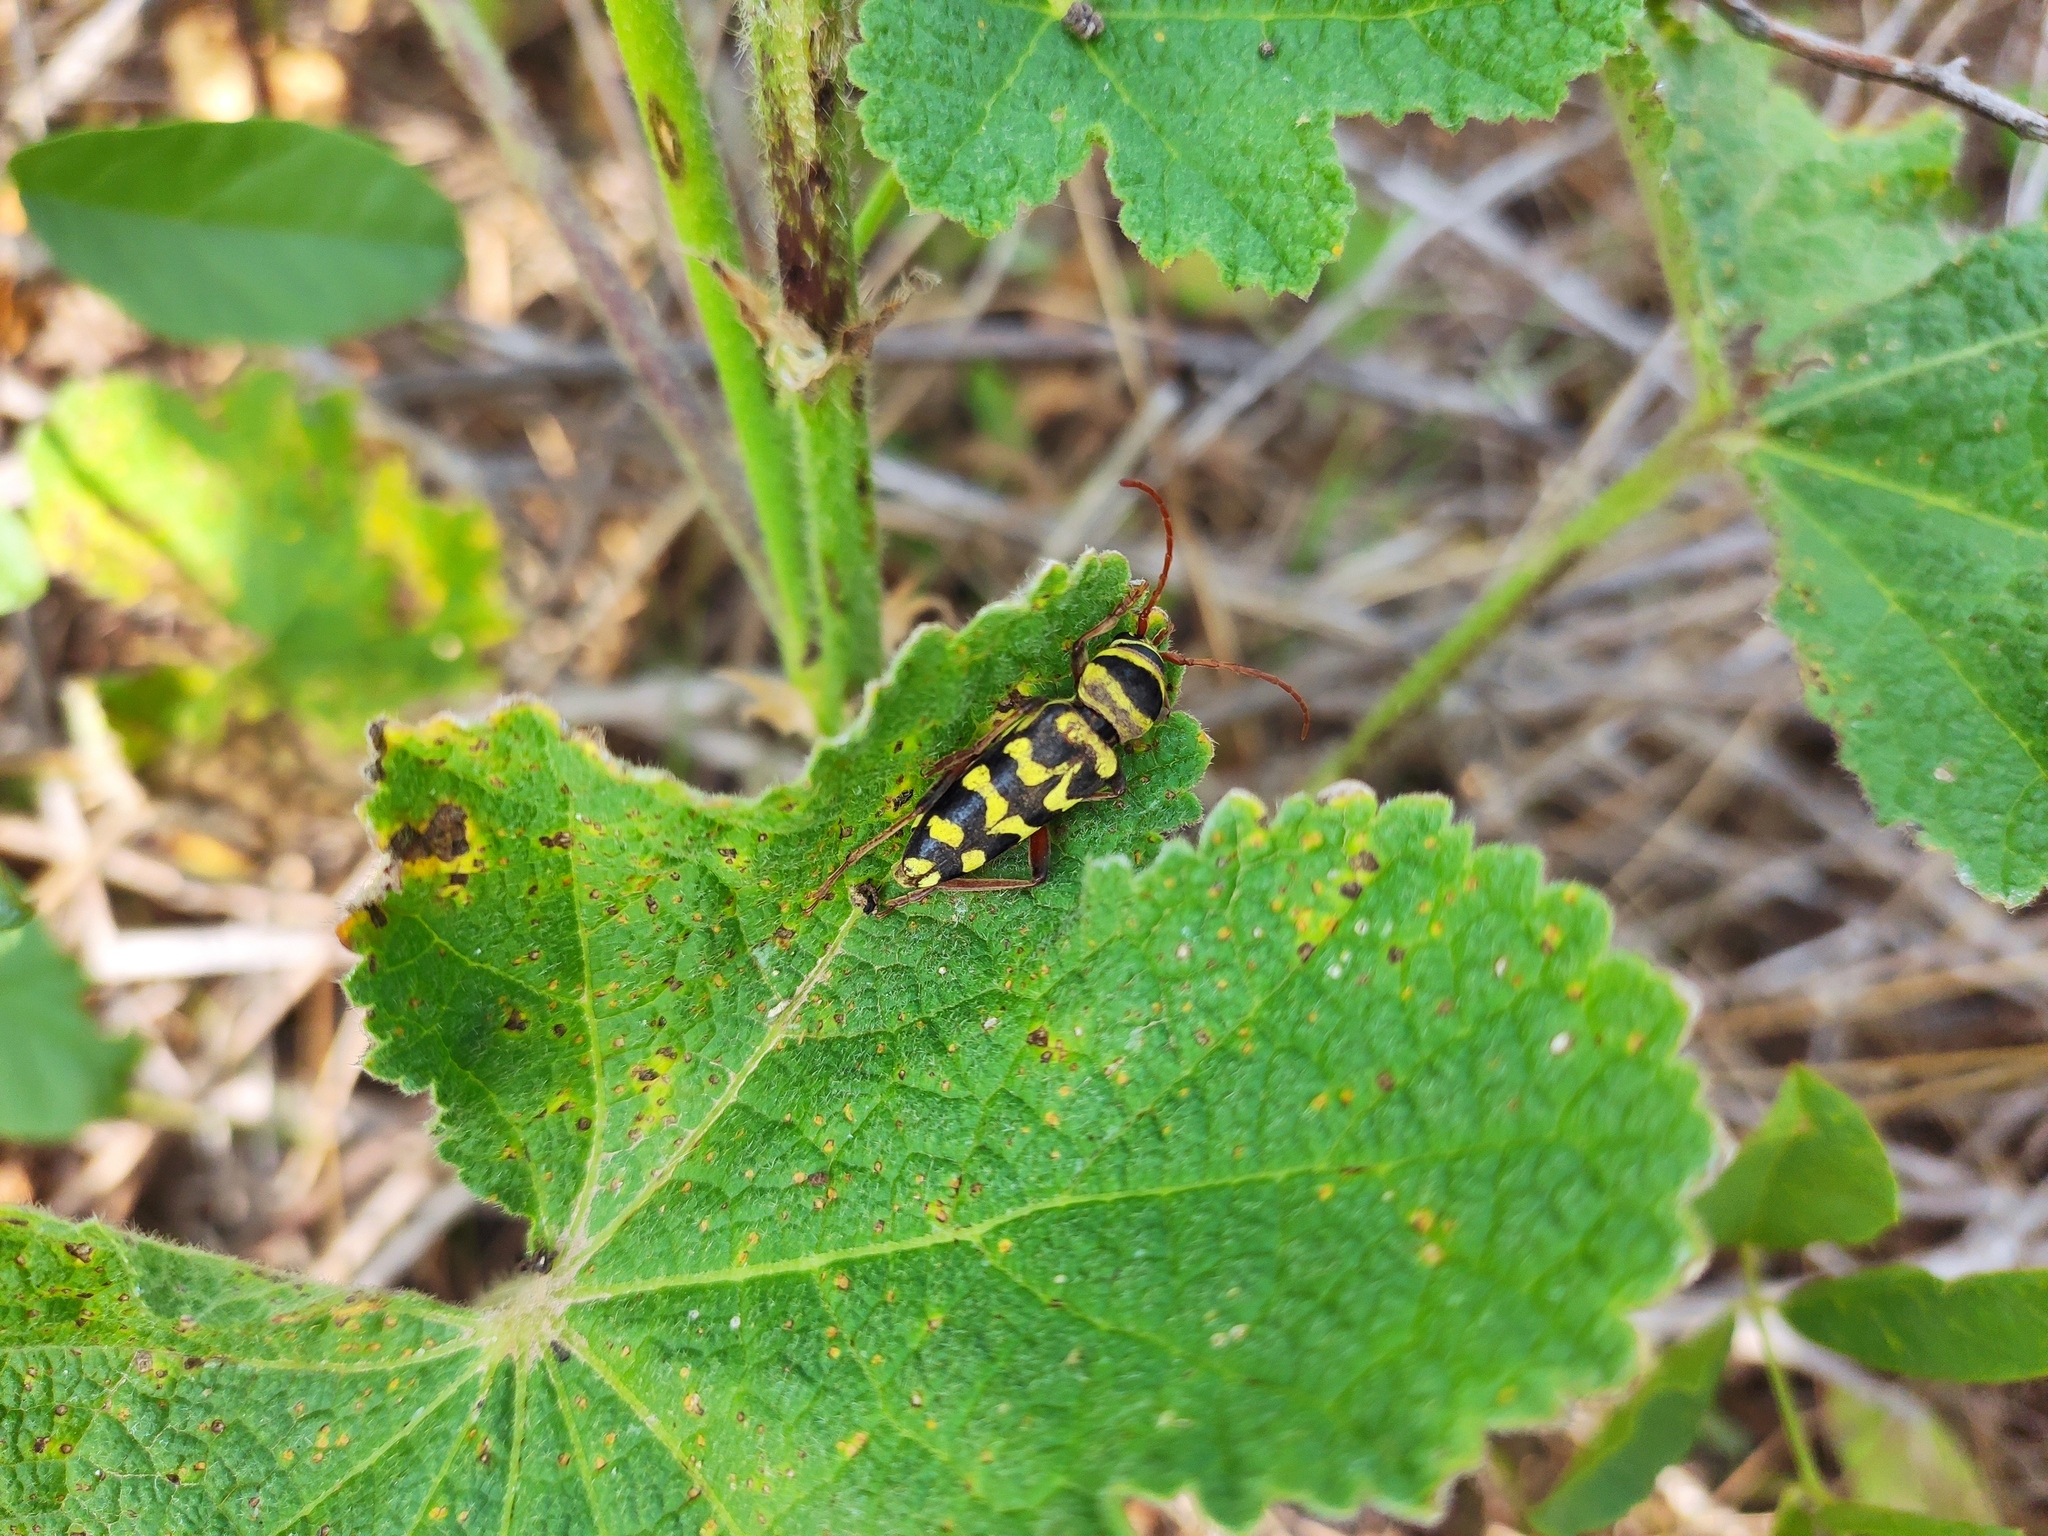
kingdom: Animalia
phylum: Arthropoda
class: Insecta
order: Coleoptera
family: Cerambycidae
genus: Plagionotus
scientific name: Plagionotus floralis
